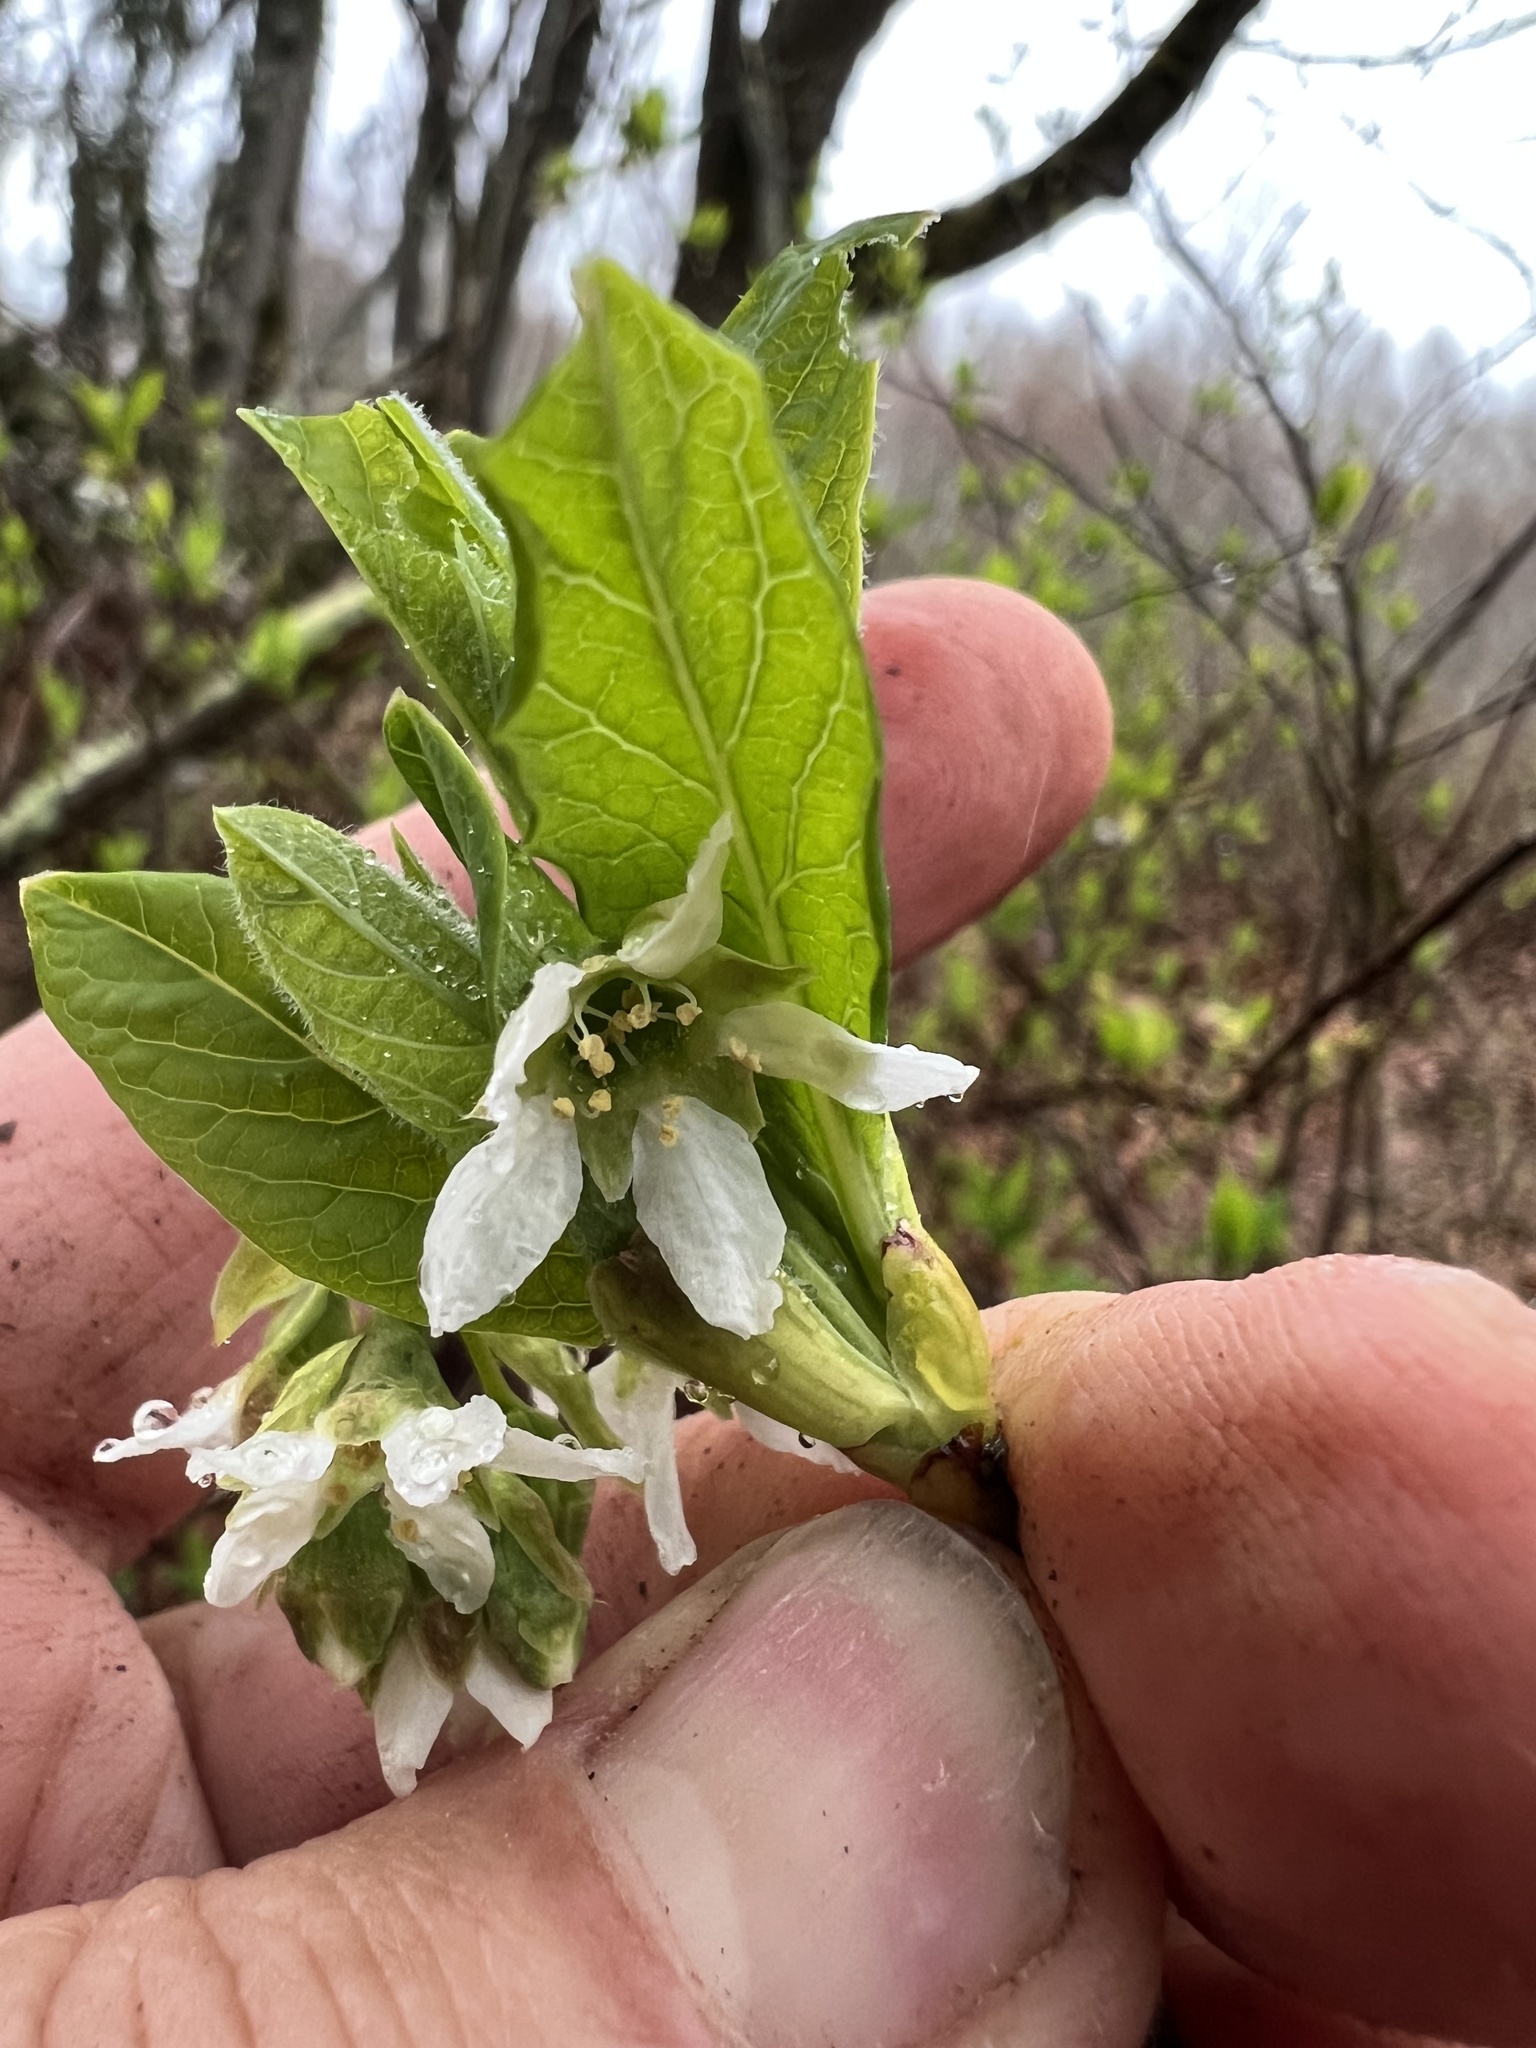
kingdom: Plantae
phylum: Tracheophyta
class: Magnoliopsida
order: Rosales
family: Rosaceae
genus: Oemleria
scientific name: Oemleria cerasiformis
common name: Osoberry
